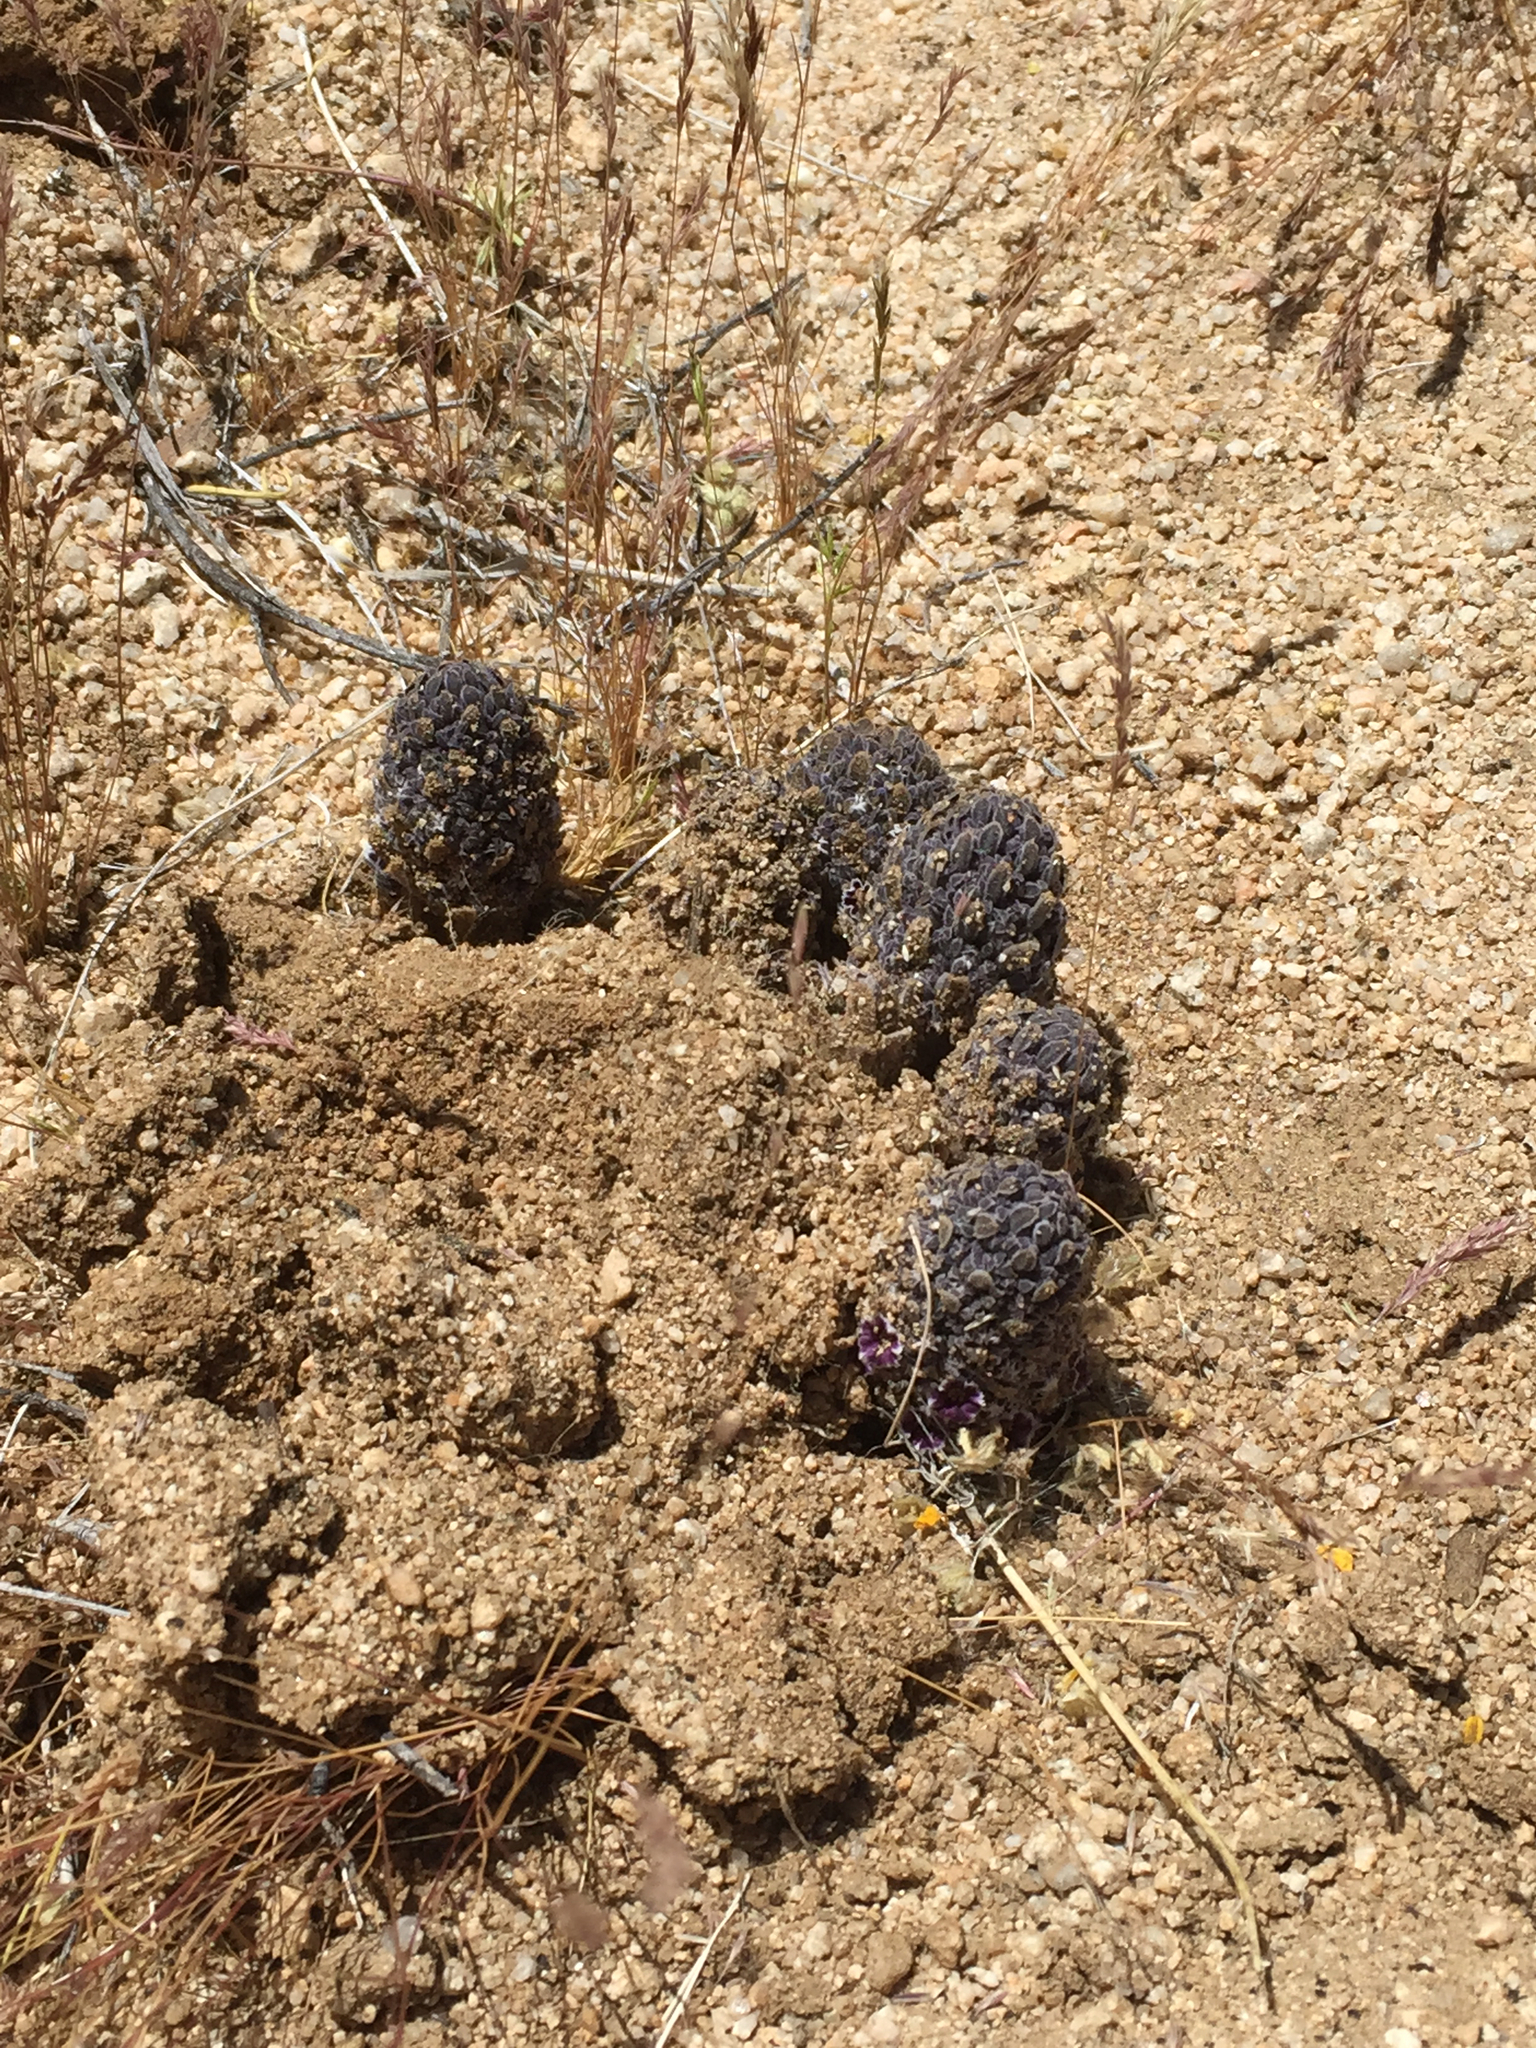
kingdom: Plantae
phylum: Tracheophyta
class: Magnoliopsida
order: Boraginales
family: Lennoaceae
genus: Pholisma
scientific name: Pholisma arenarium
